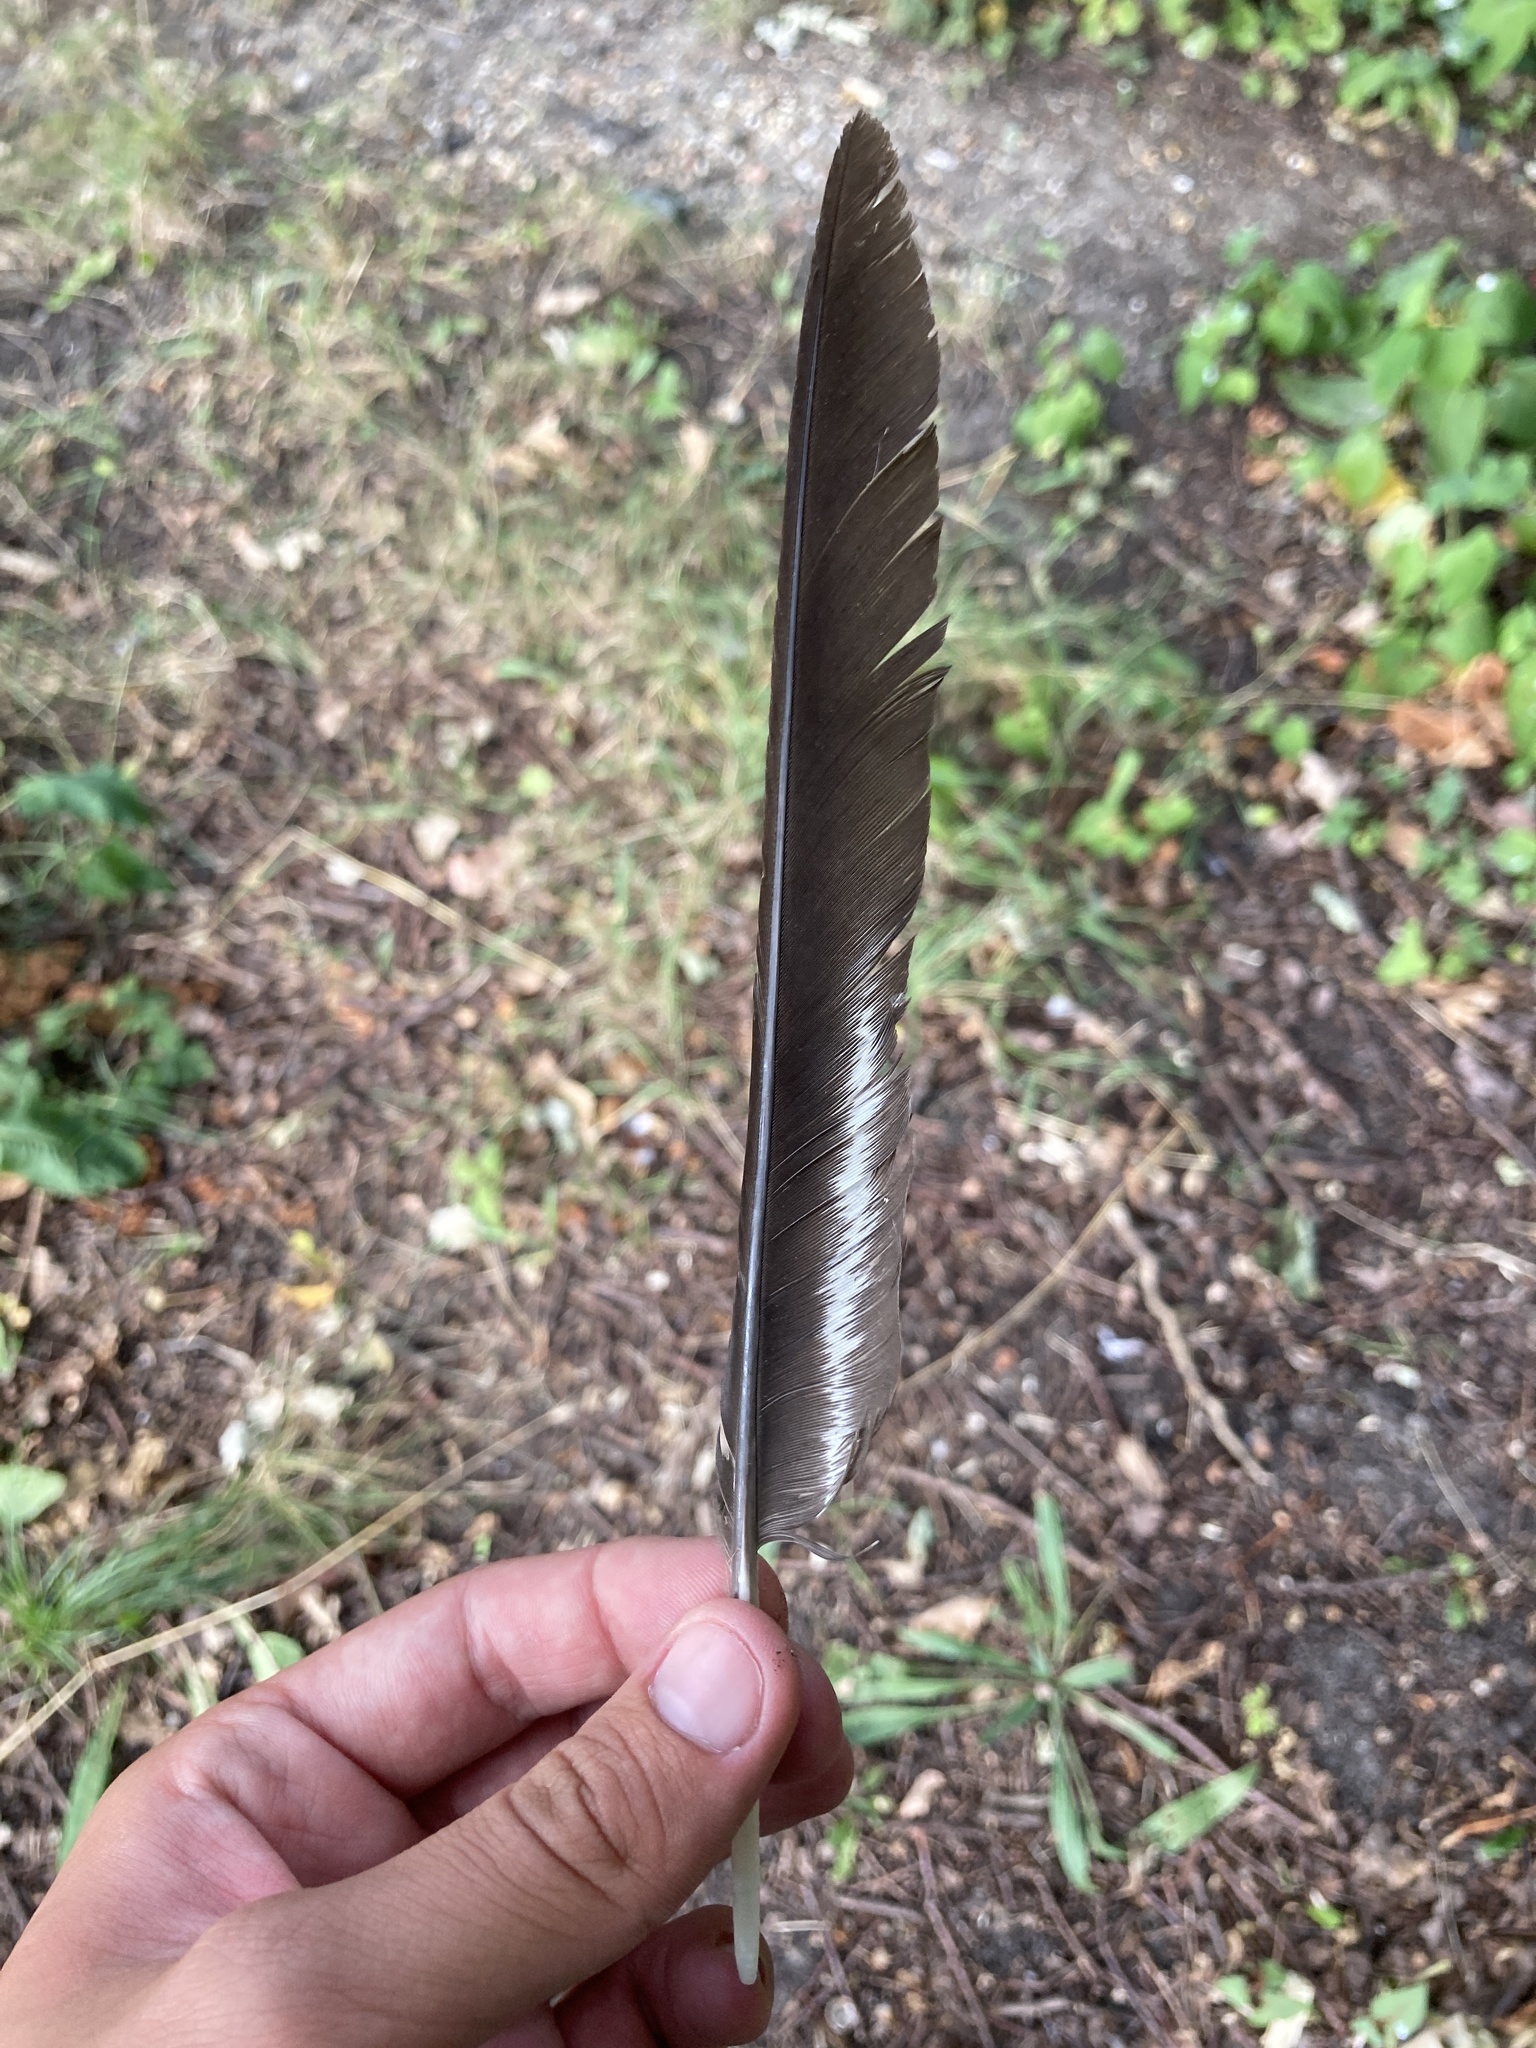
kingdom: Animalia
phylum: Chordata
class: Aves
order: Passeriformes
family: Corvidae
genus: Corvus
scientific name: Corvus corone
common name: Carrion crow
